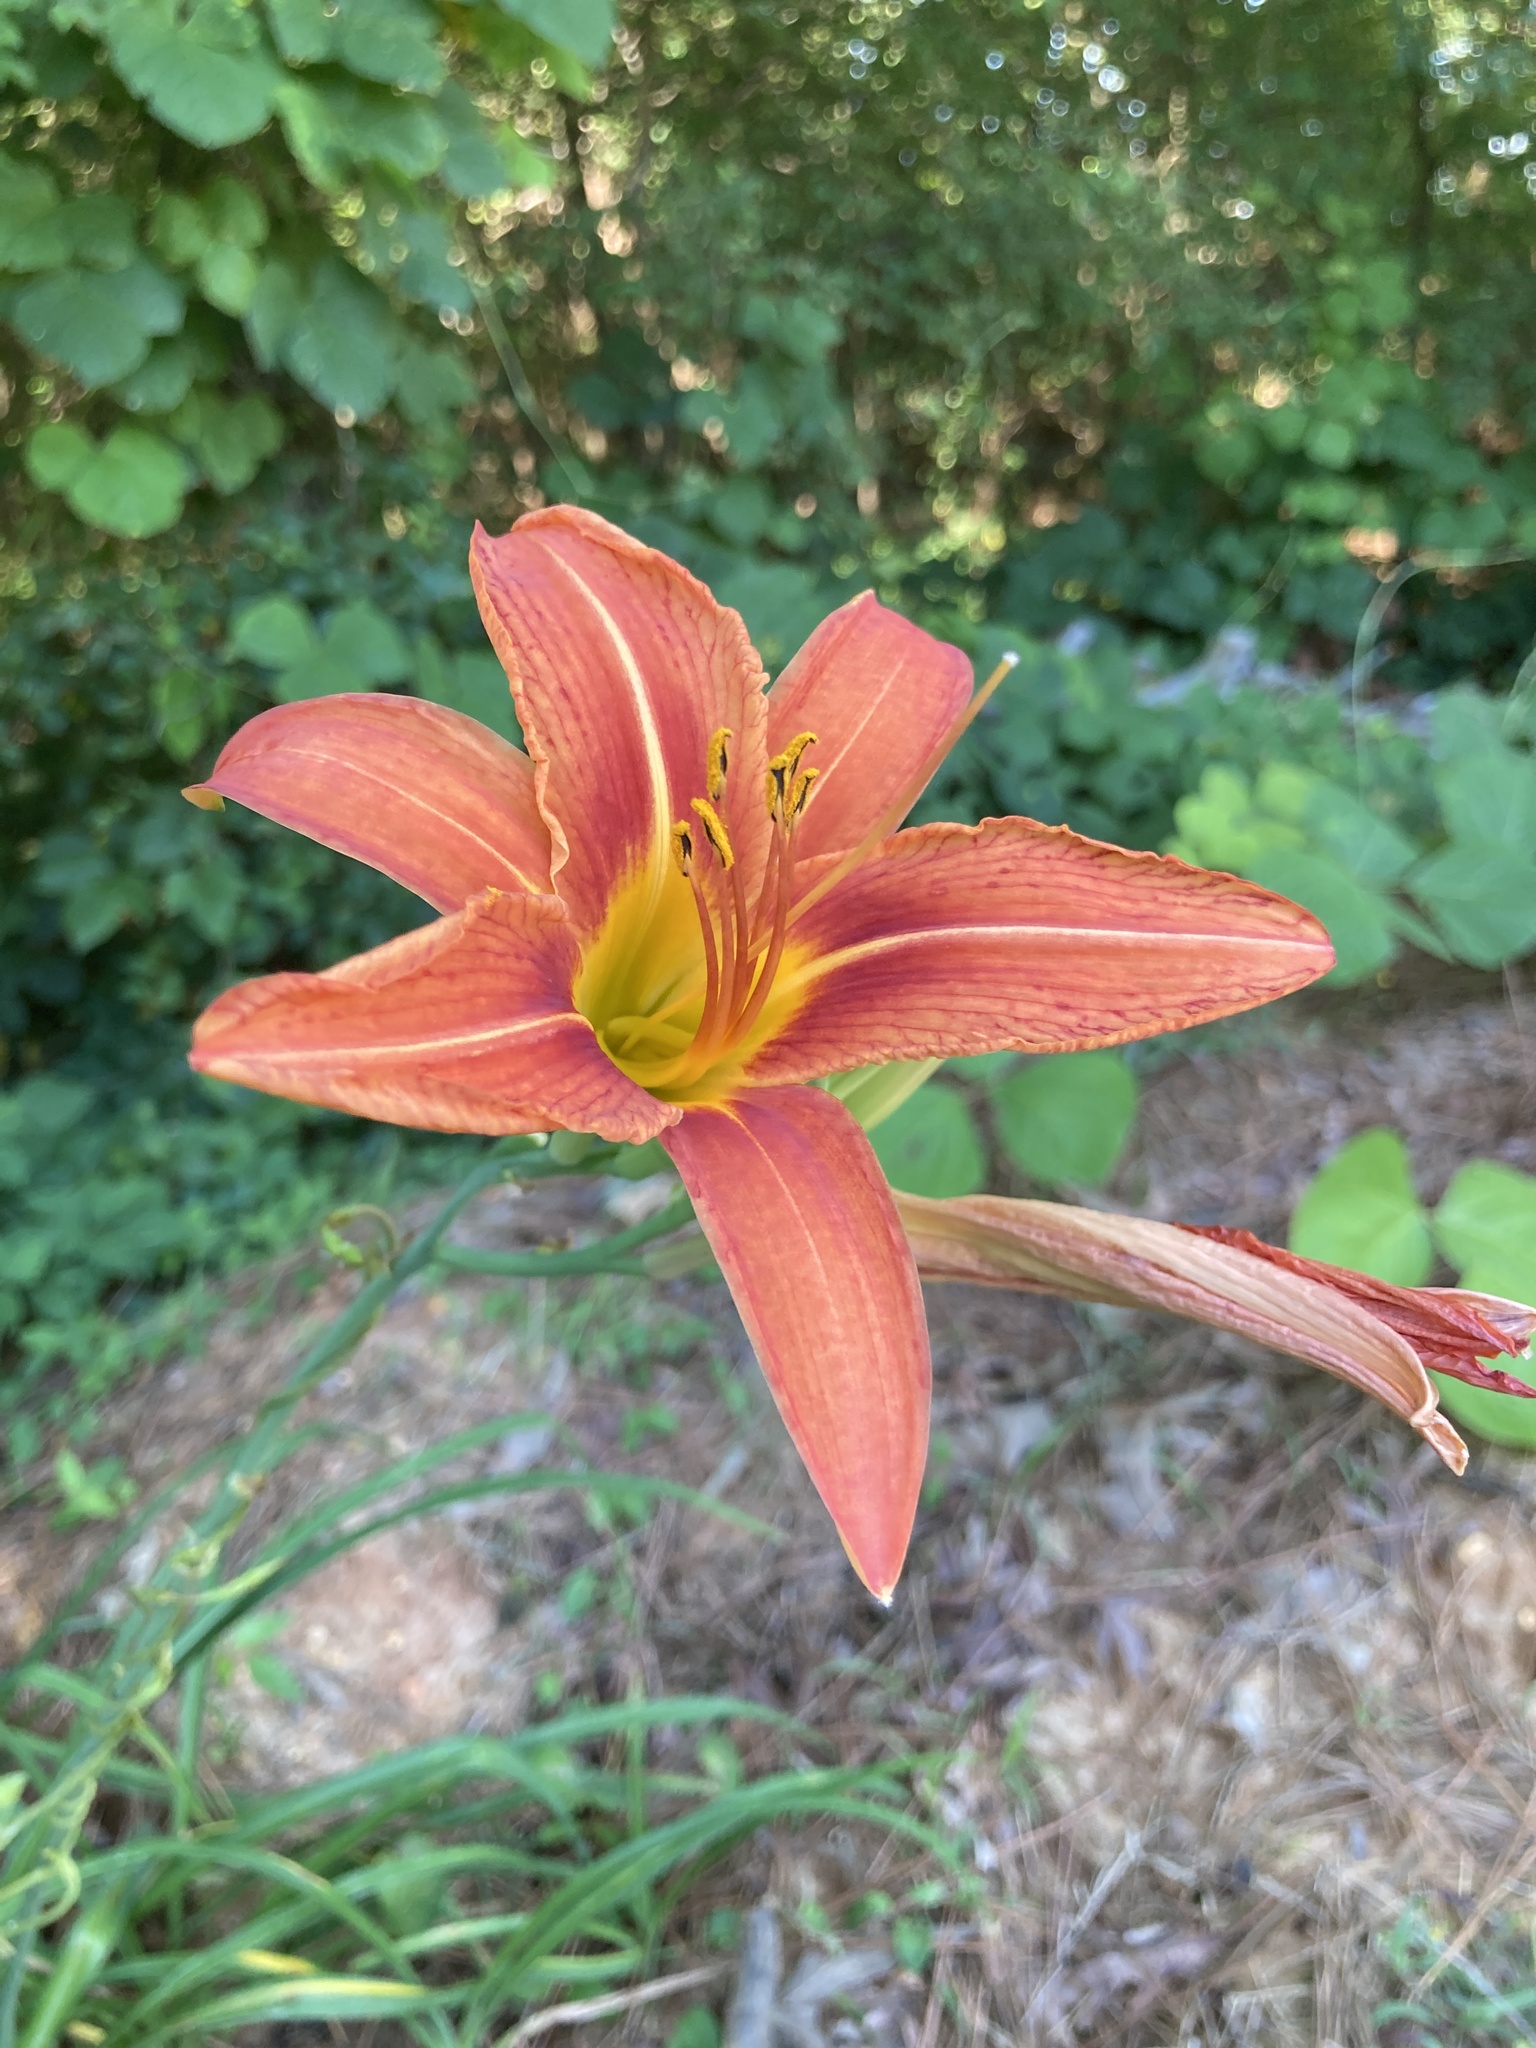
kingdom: Plantae
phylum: Tracheophyta
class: Liliopsida
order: Asparagales
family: Asphodelaceae
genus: Hemerocallis
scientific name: Hemerocallis fulva
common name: Orange day-lily
